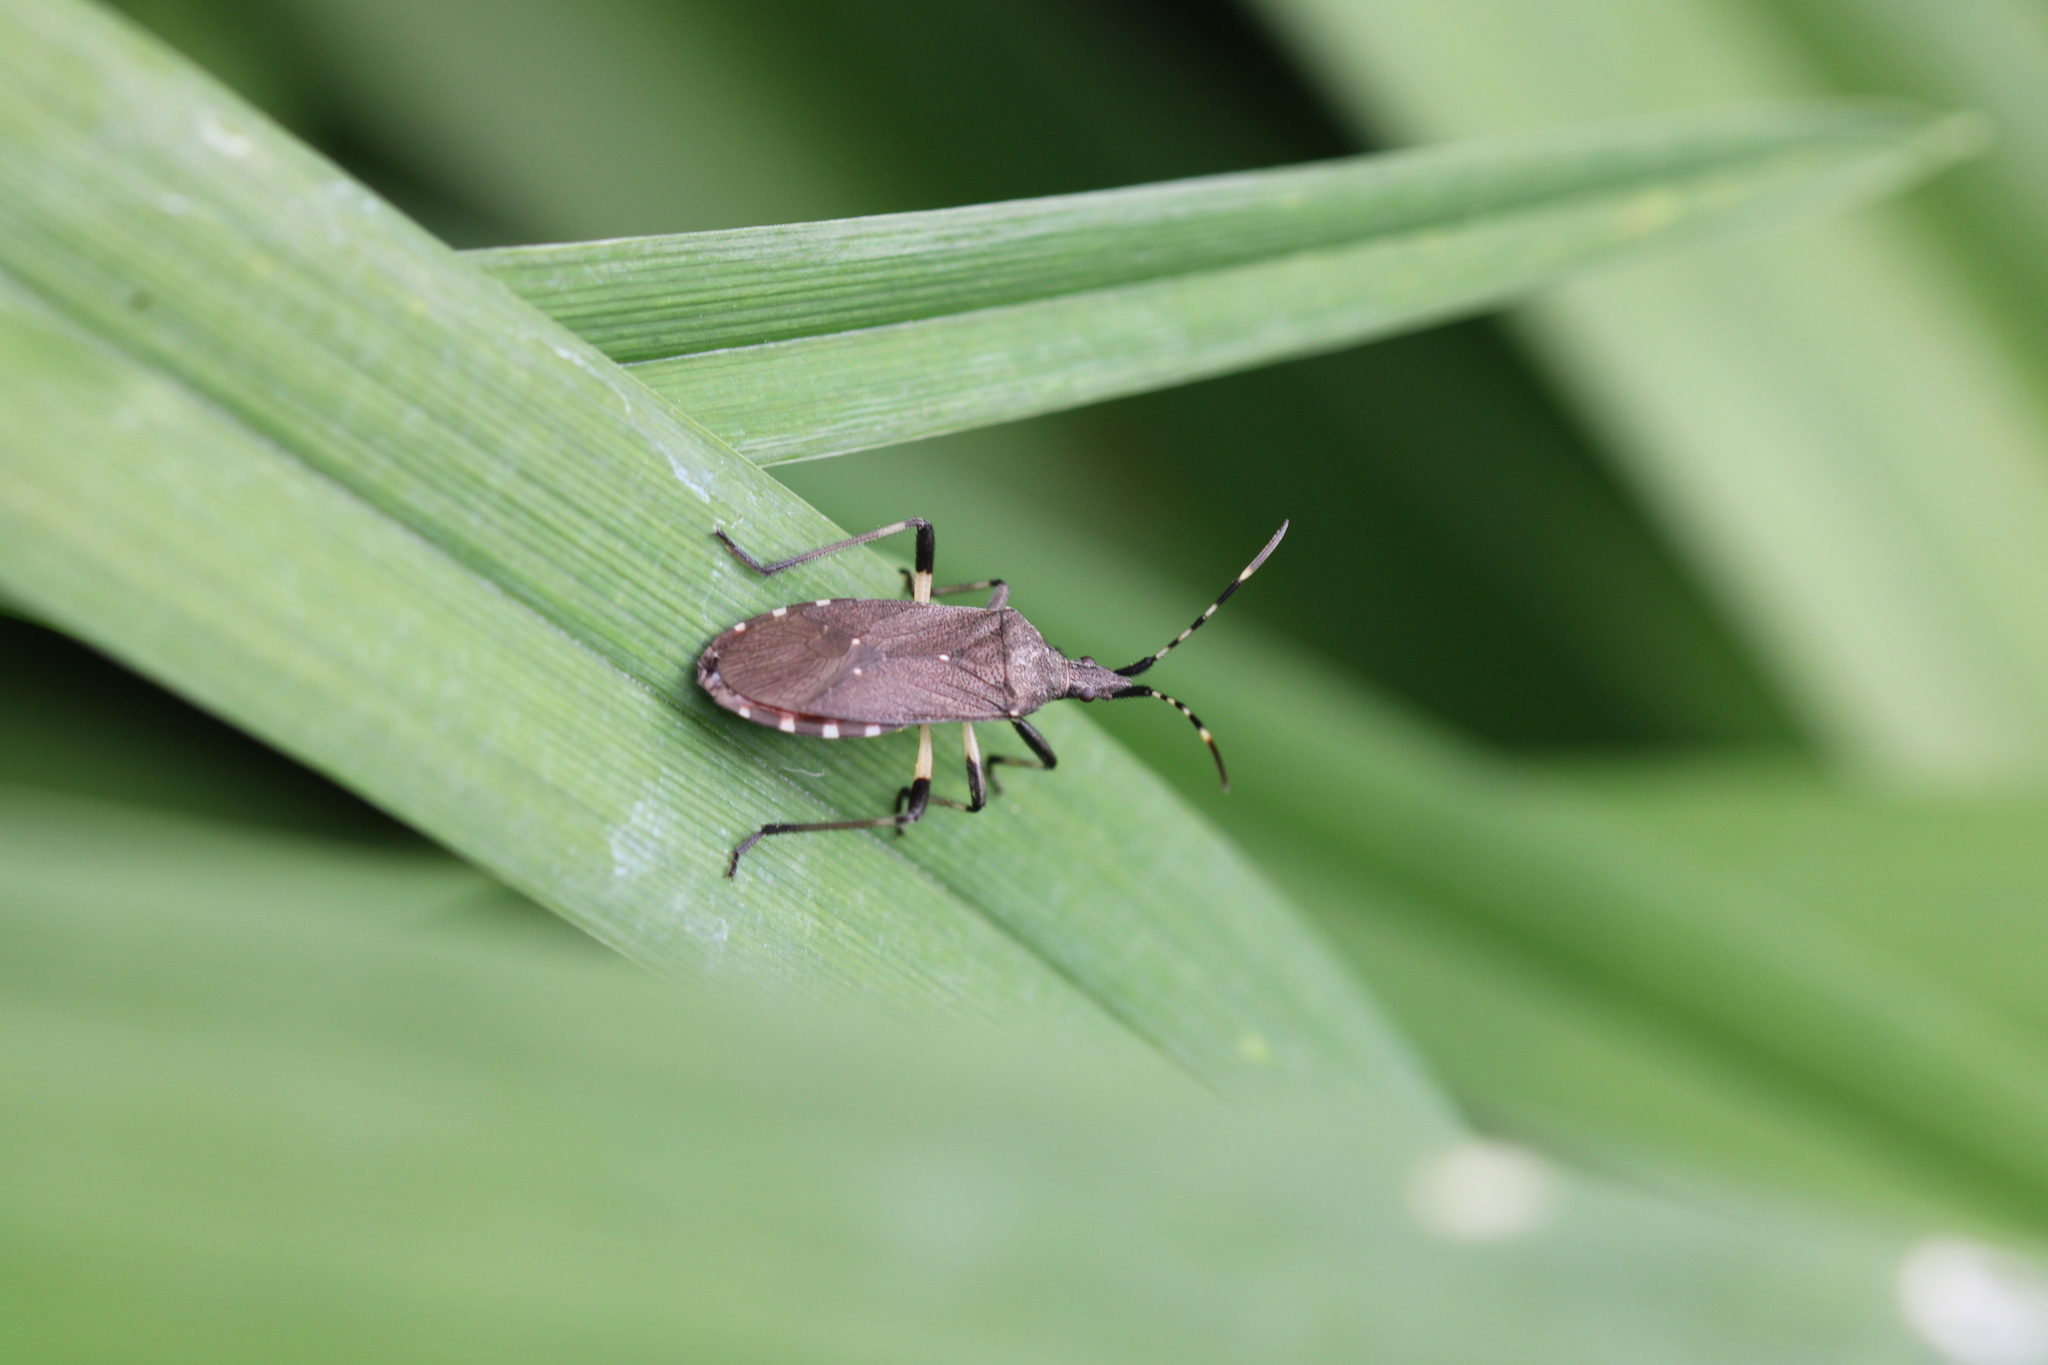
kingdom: Animalia
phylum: Arthropoda
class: Insecta
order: Hemiptera
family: Stenocephalidae
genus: Dicranocephalus
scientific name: Dicranocephalus agilis
